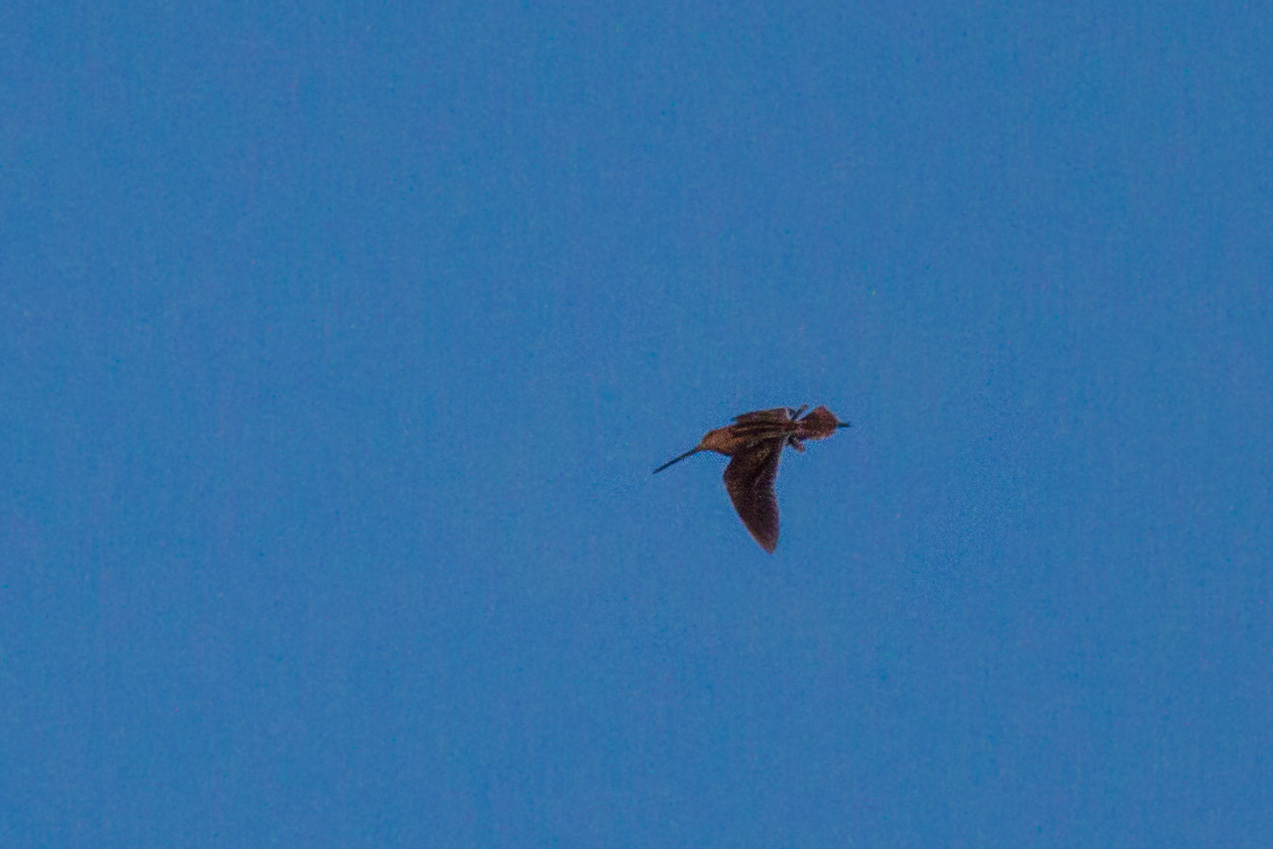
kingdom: Animalia
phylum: Chordata
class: Aves
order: Charadriiformes
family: Scolopacidae
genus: Gallinago
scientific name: Gallinago gallinago
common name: Common snipe
